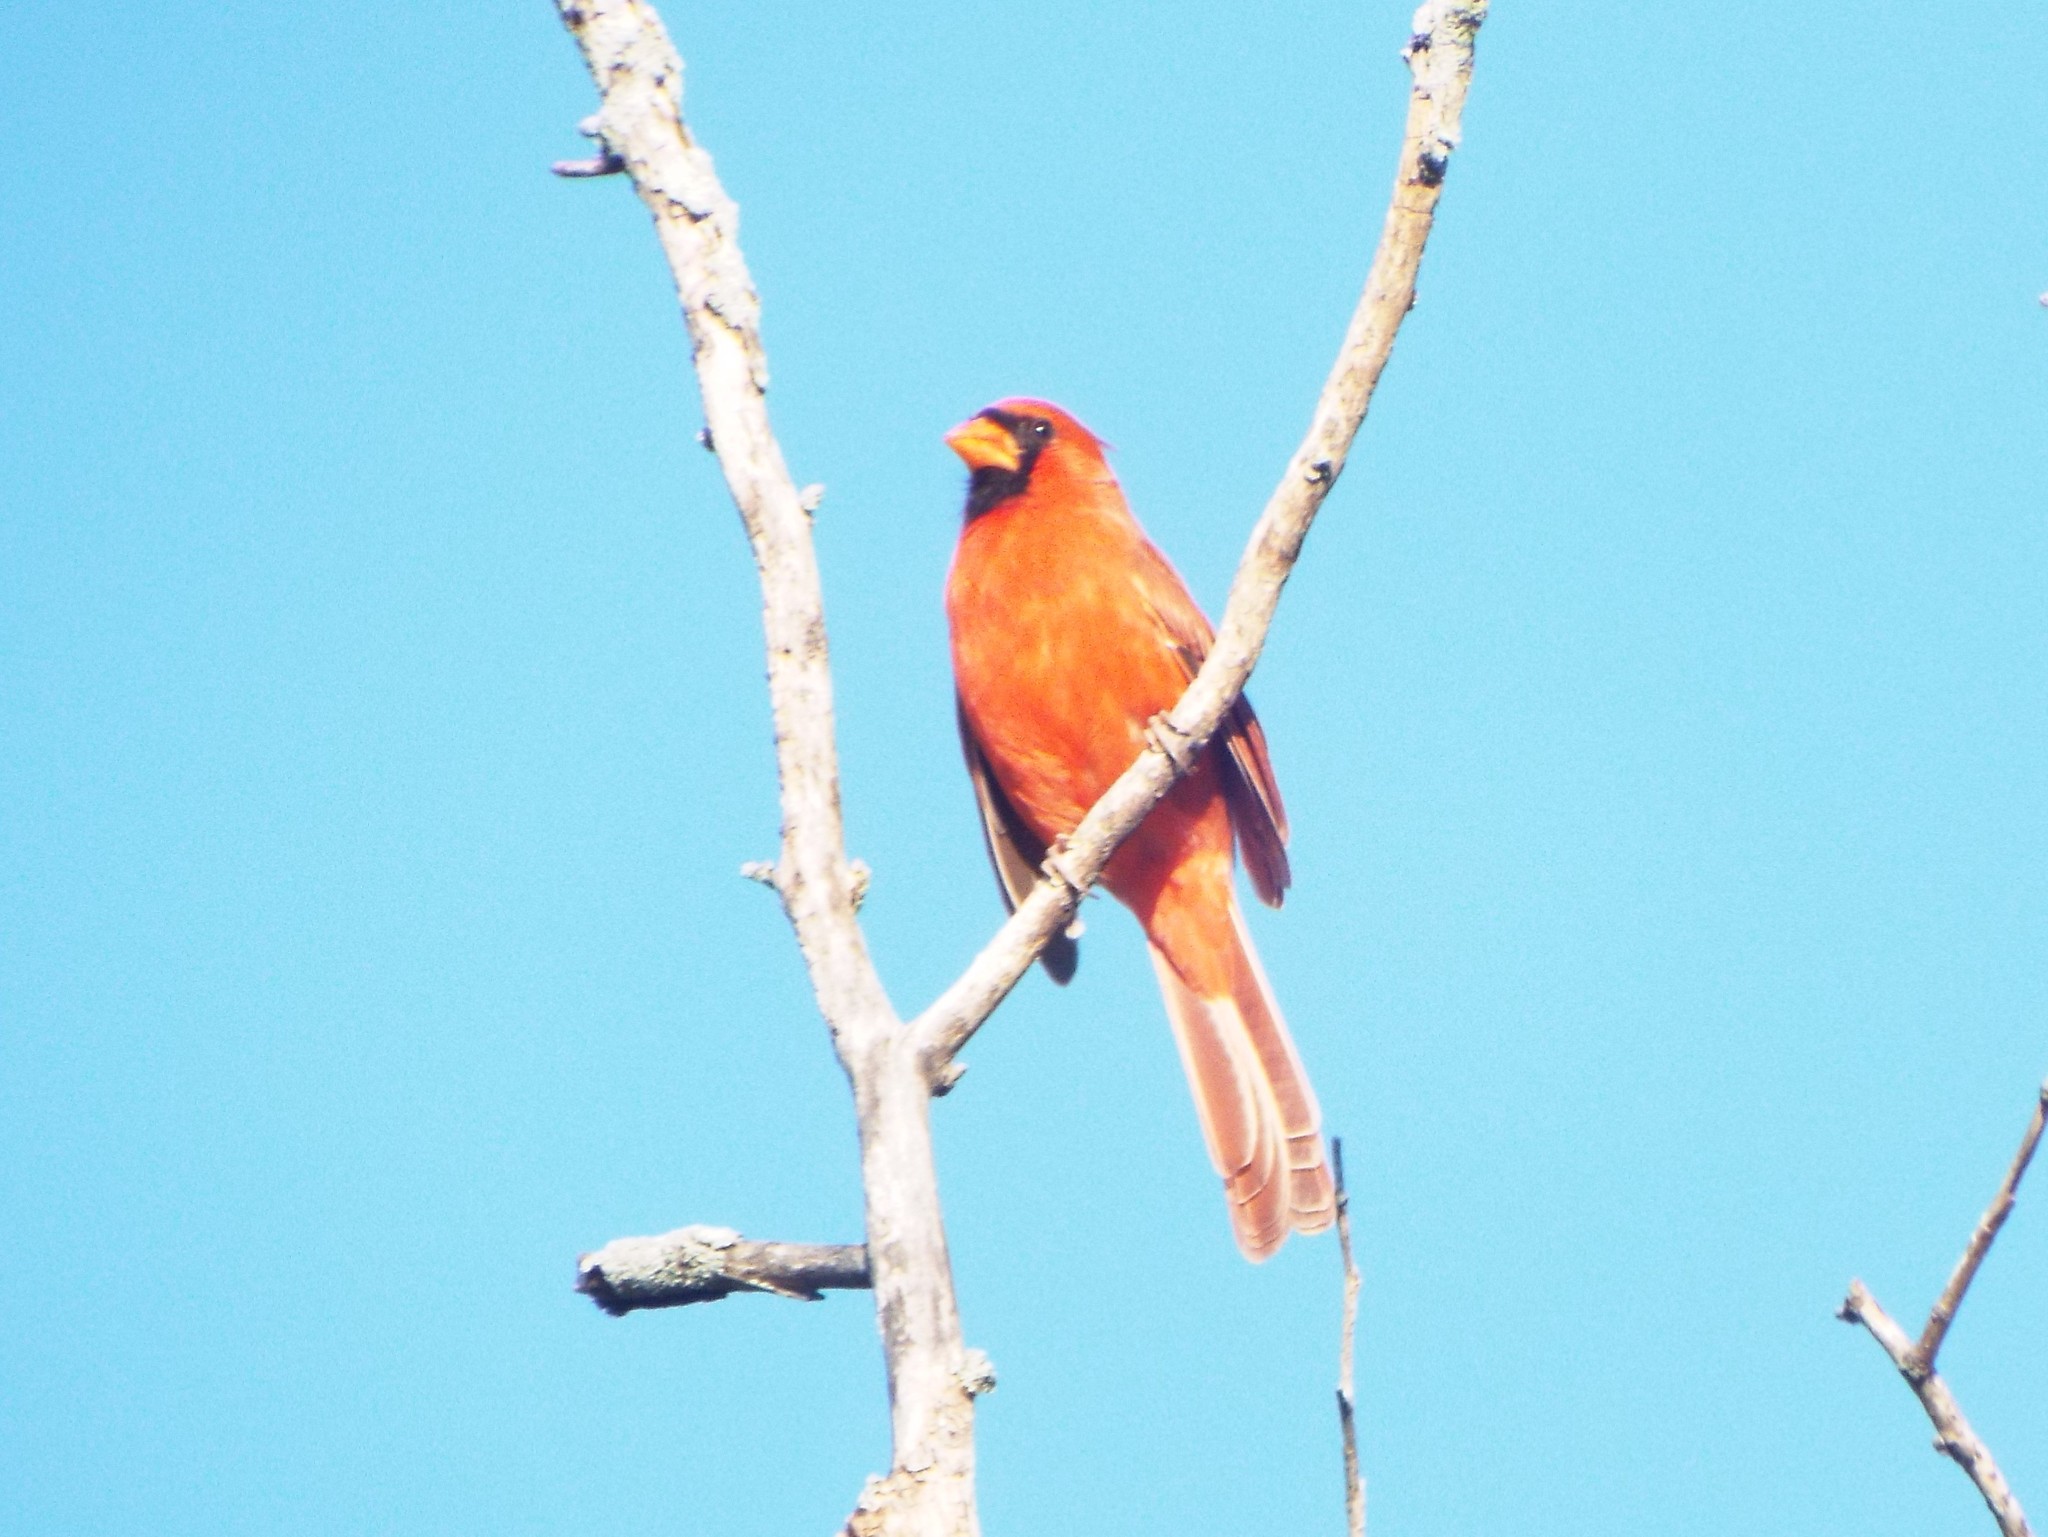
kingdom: Animalia
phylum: Chordata
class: Aves
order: Passeriformes
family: Cardinalidae
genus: Cardinalis
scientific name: Cardinalis cardinalis
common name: Northern cardinal
